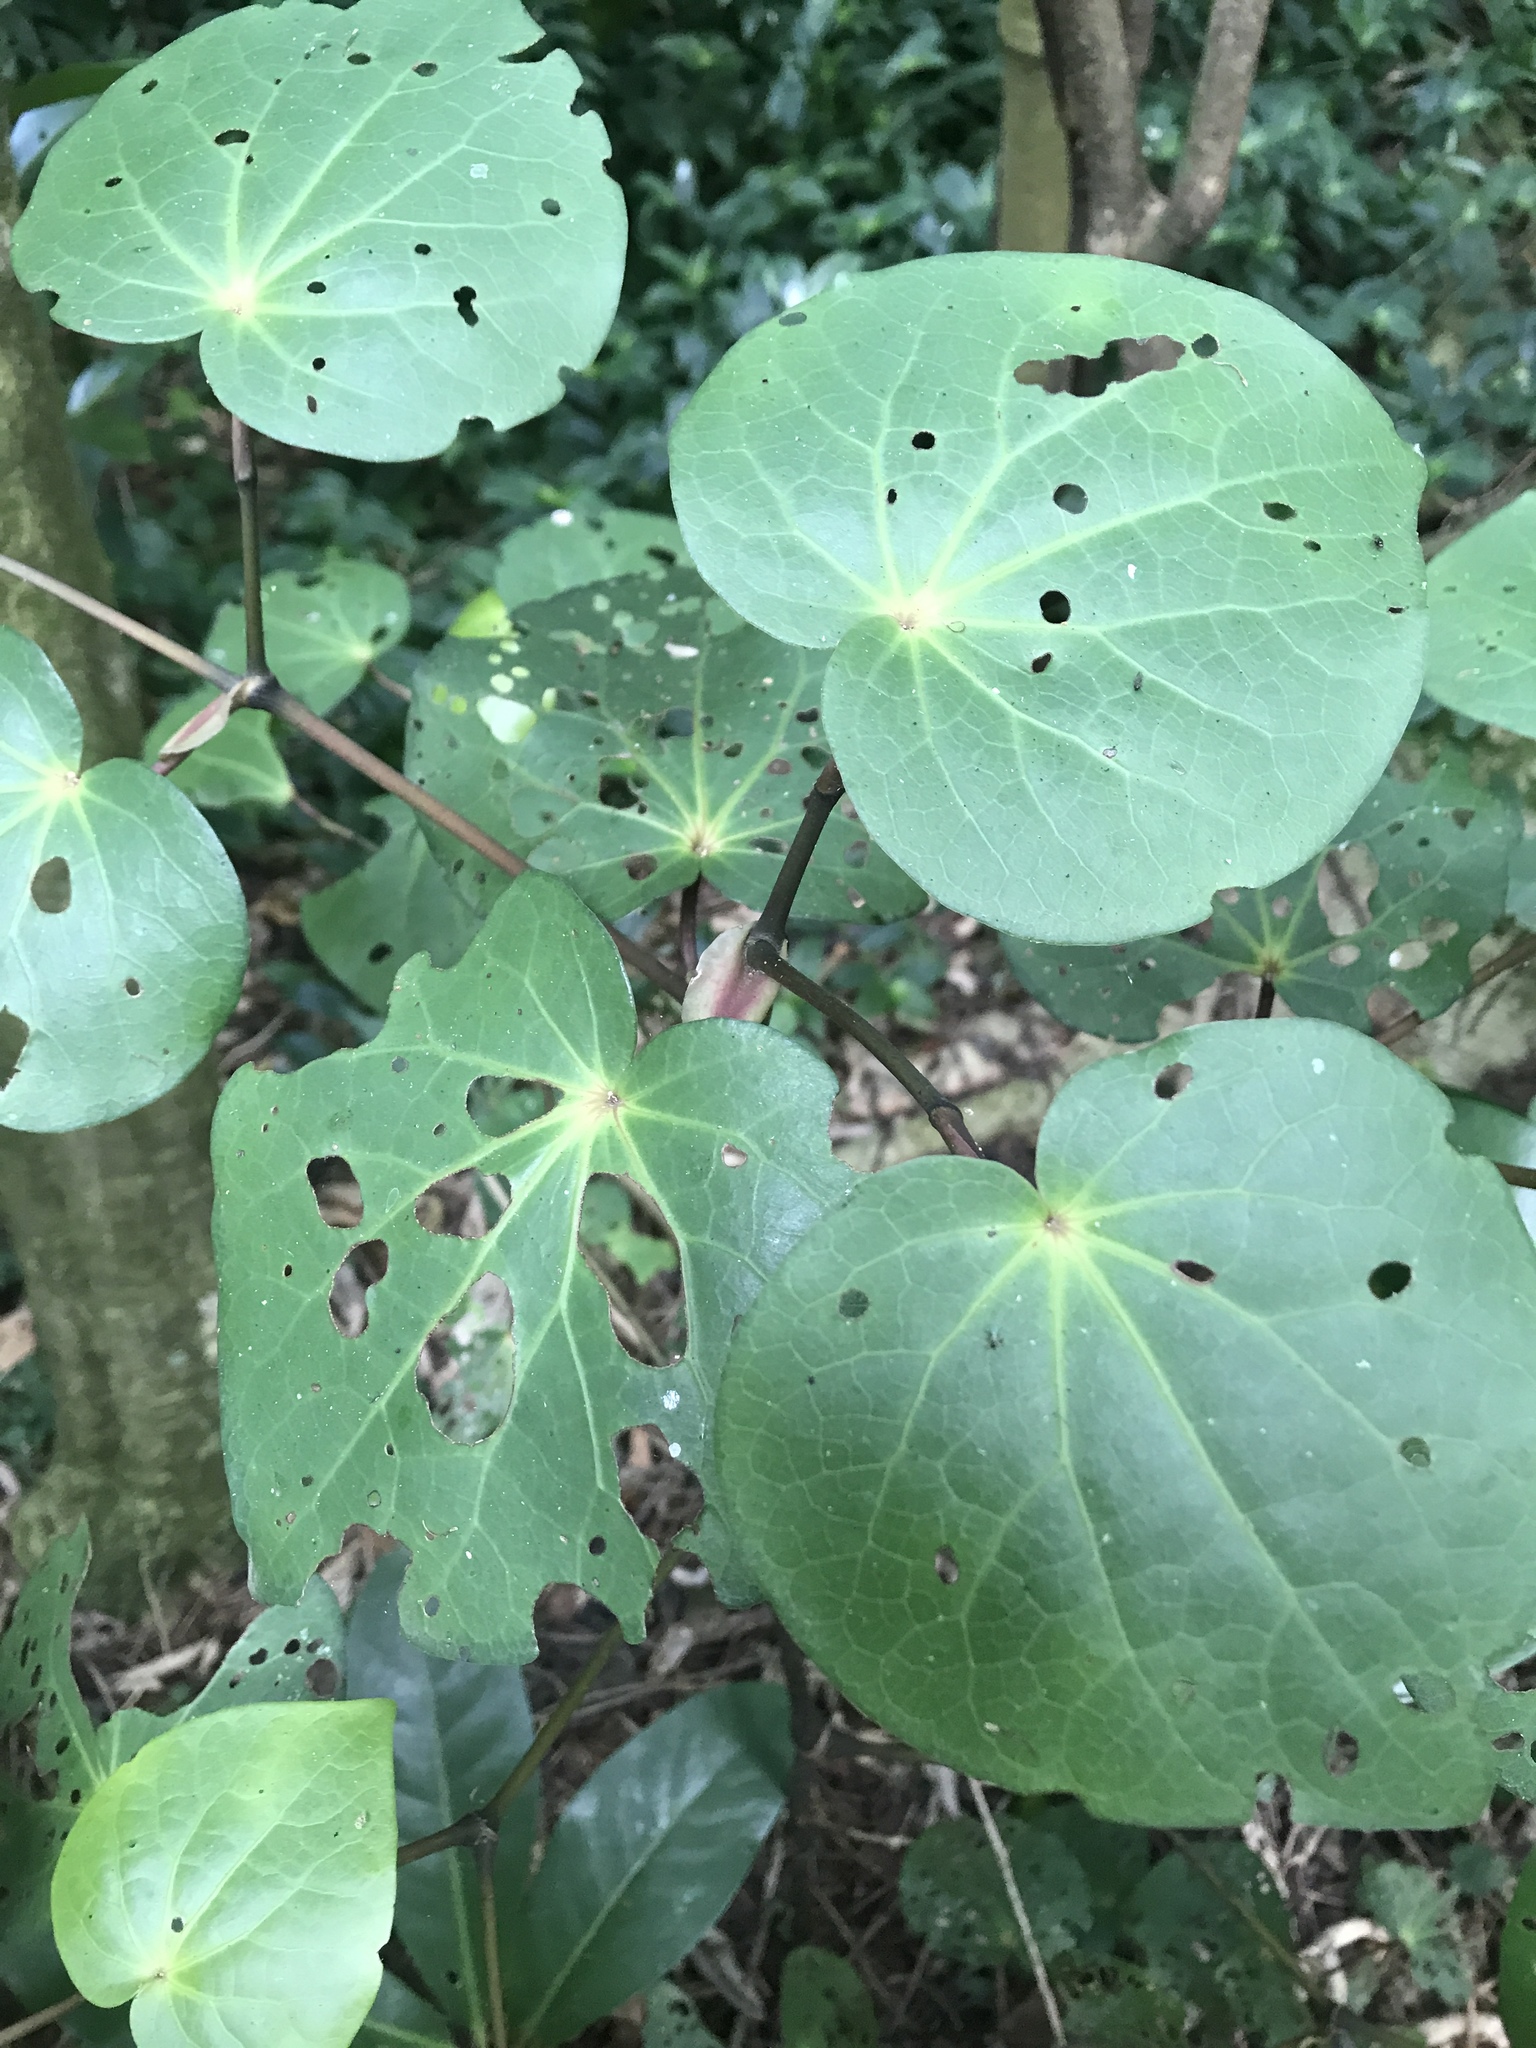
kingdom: Plantae
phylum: Tracheophyta
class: Magnoliopsida
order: Piperales
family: Piperaceae
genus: Macropiper
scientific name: Macropiper excelsum
